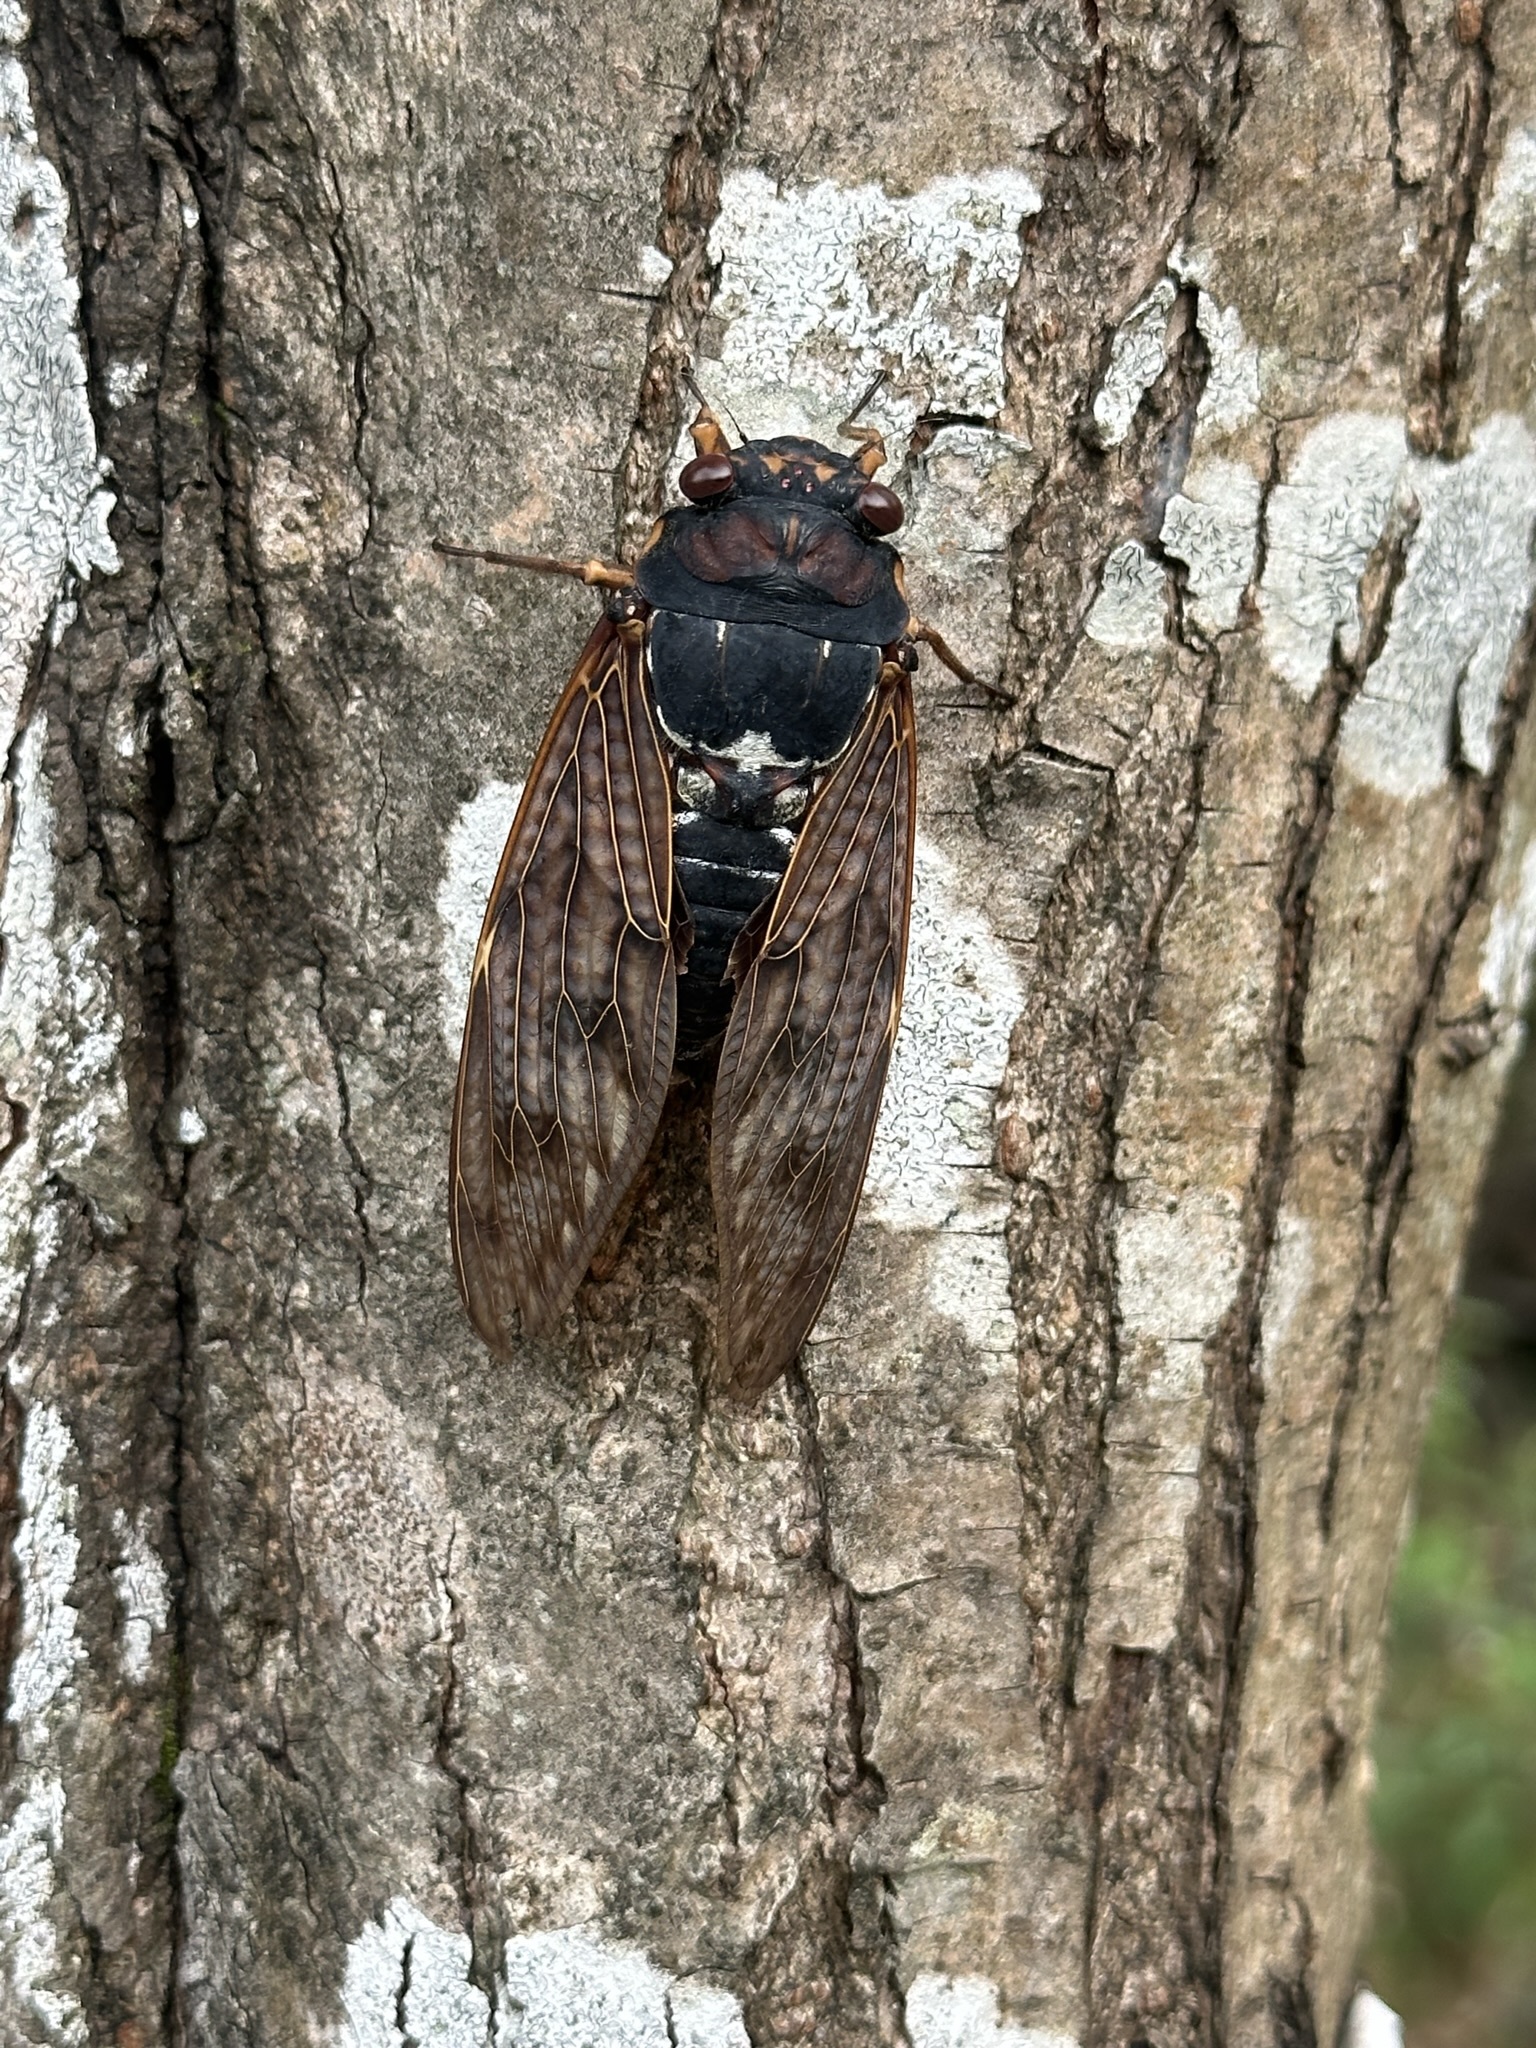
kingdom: Animalia
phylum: Arthropoda
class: Insecta
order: Hemiptera
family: Cicadidae
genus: Graptopsaltria
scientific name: Graptopsaltria nigrofuscata
